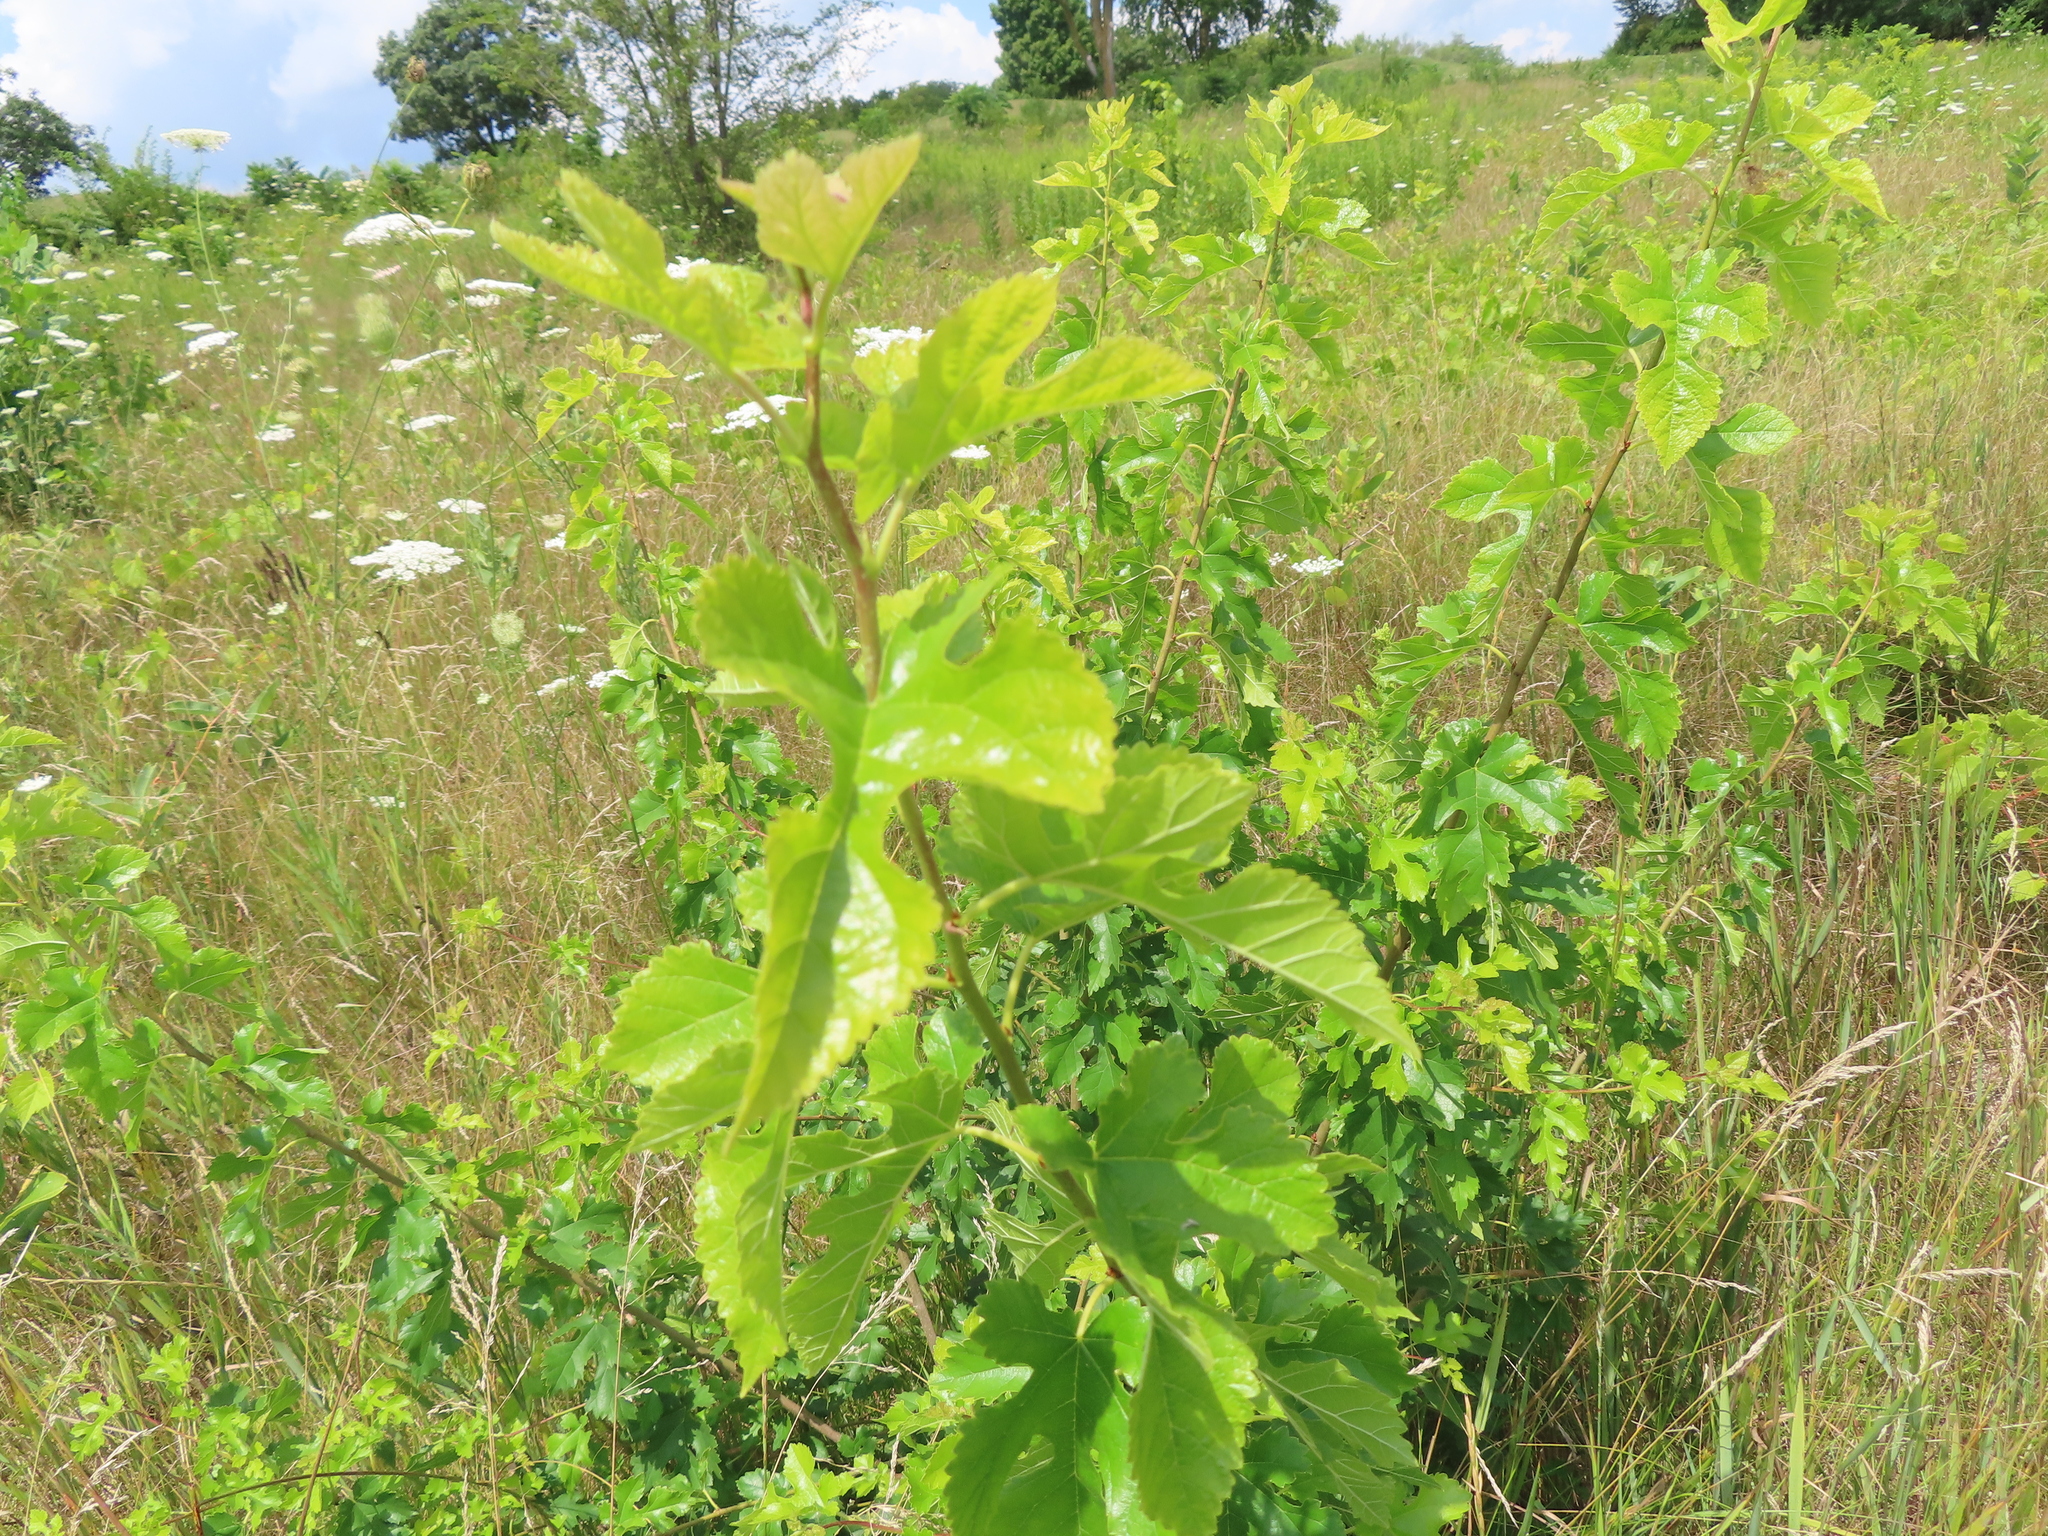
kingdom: Plantae
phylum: Tracheophyta
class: Magnoliopsida
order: Rosales
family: Moraceae
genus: Morus
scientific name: Morus alba
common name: White mulberry
